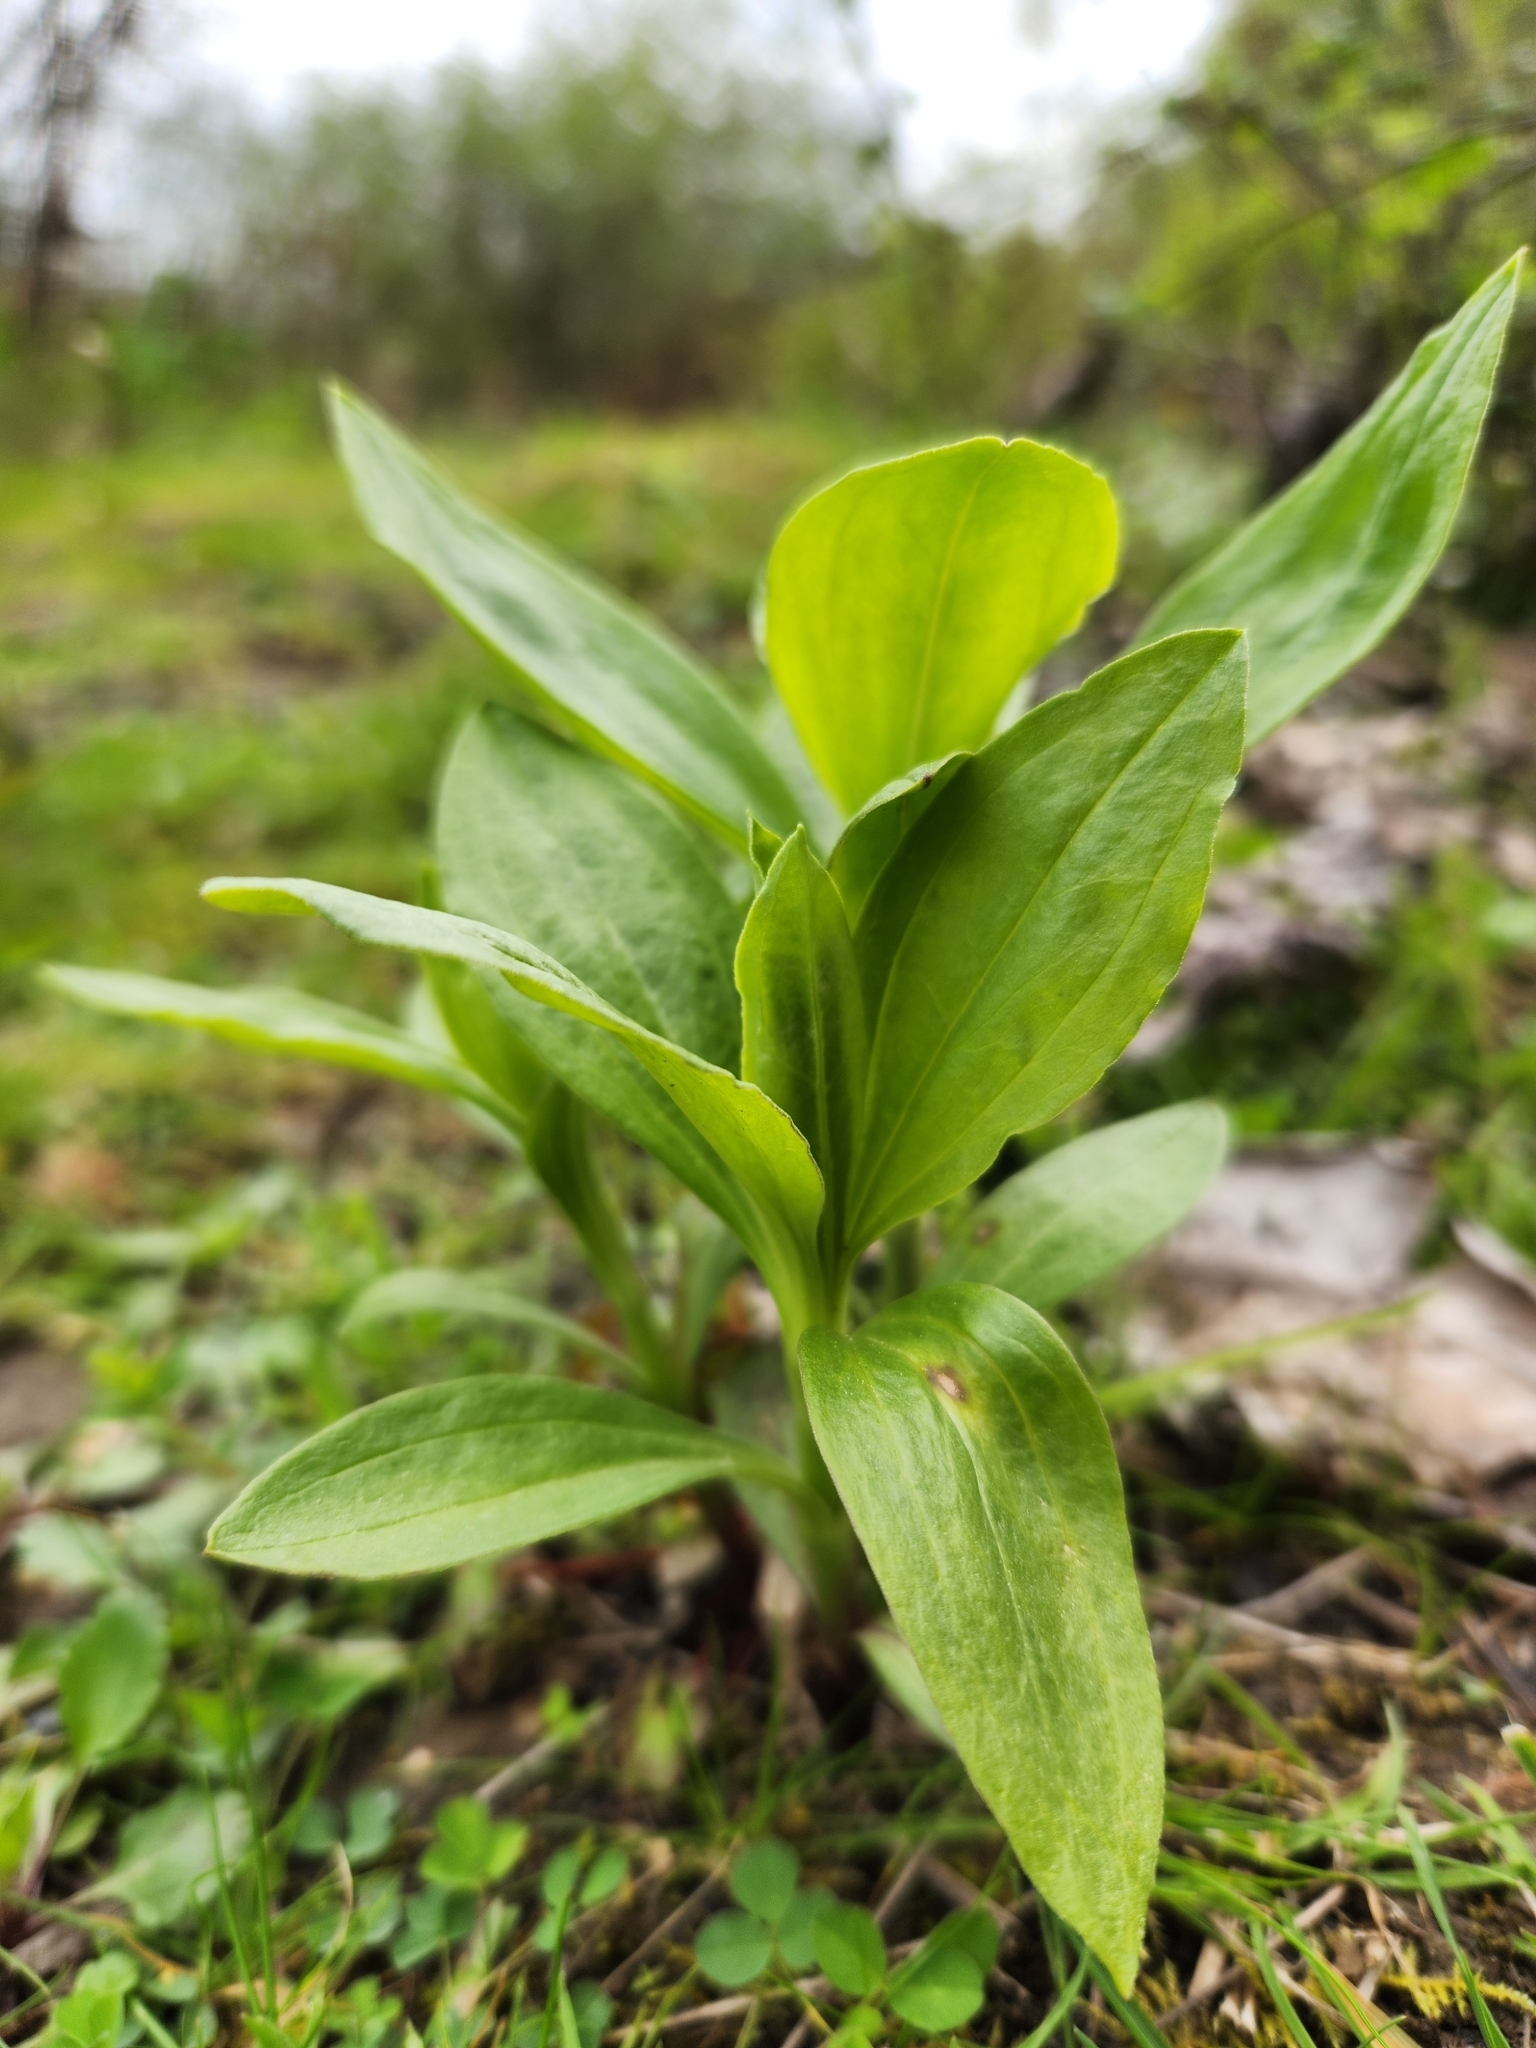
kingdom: Plantae
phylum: Tracheophyta
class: Magnoliopsida
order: Caryophyllales
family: Caryophyllaceae
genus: Saponaria
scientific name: Saponaria officinalis
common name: Soapwort
